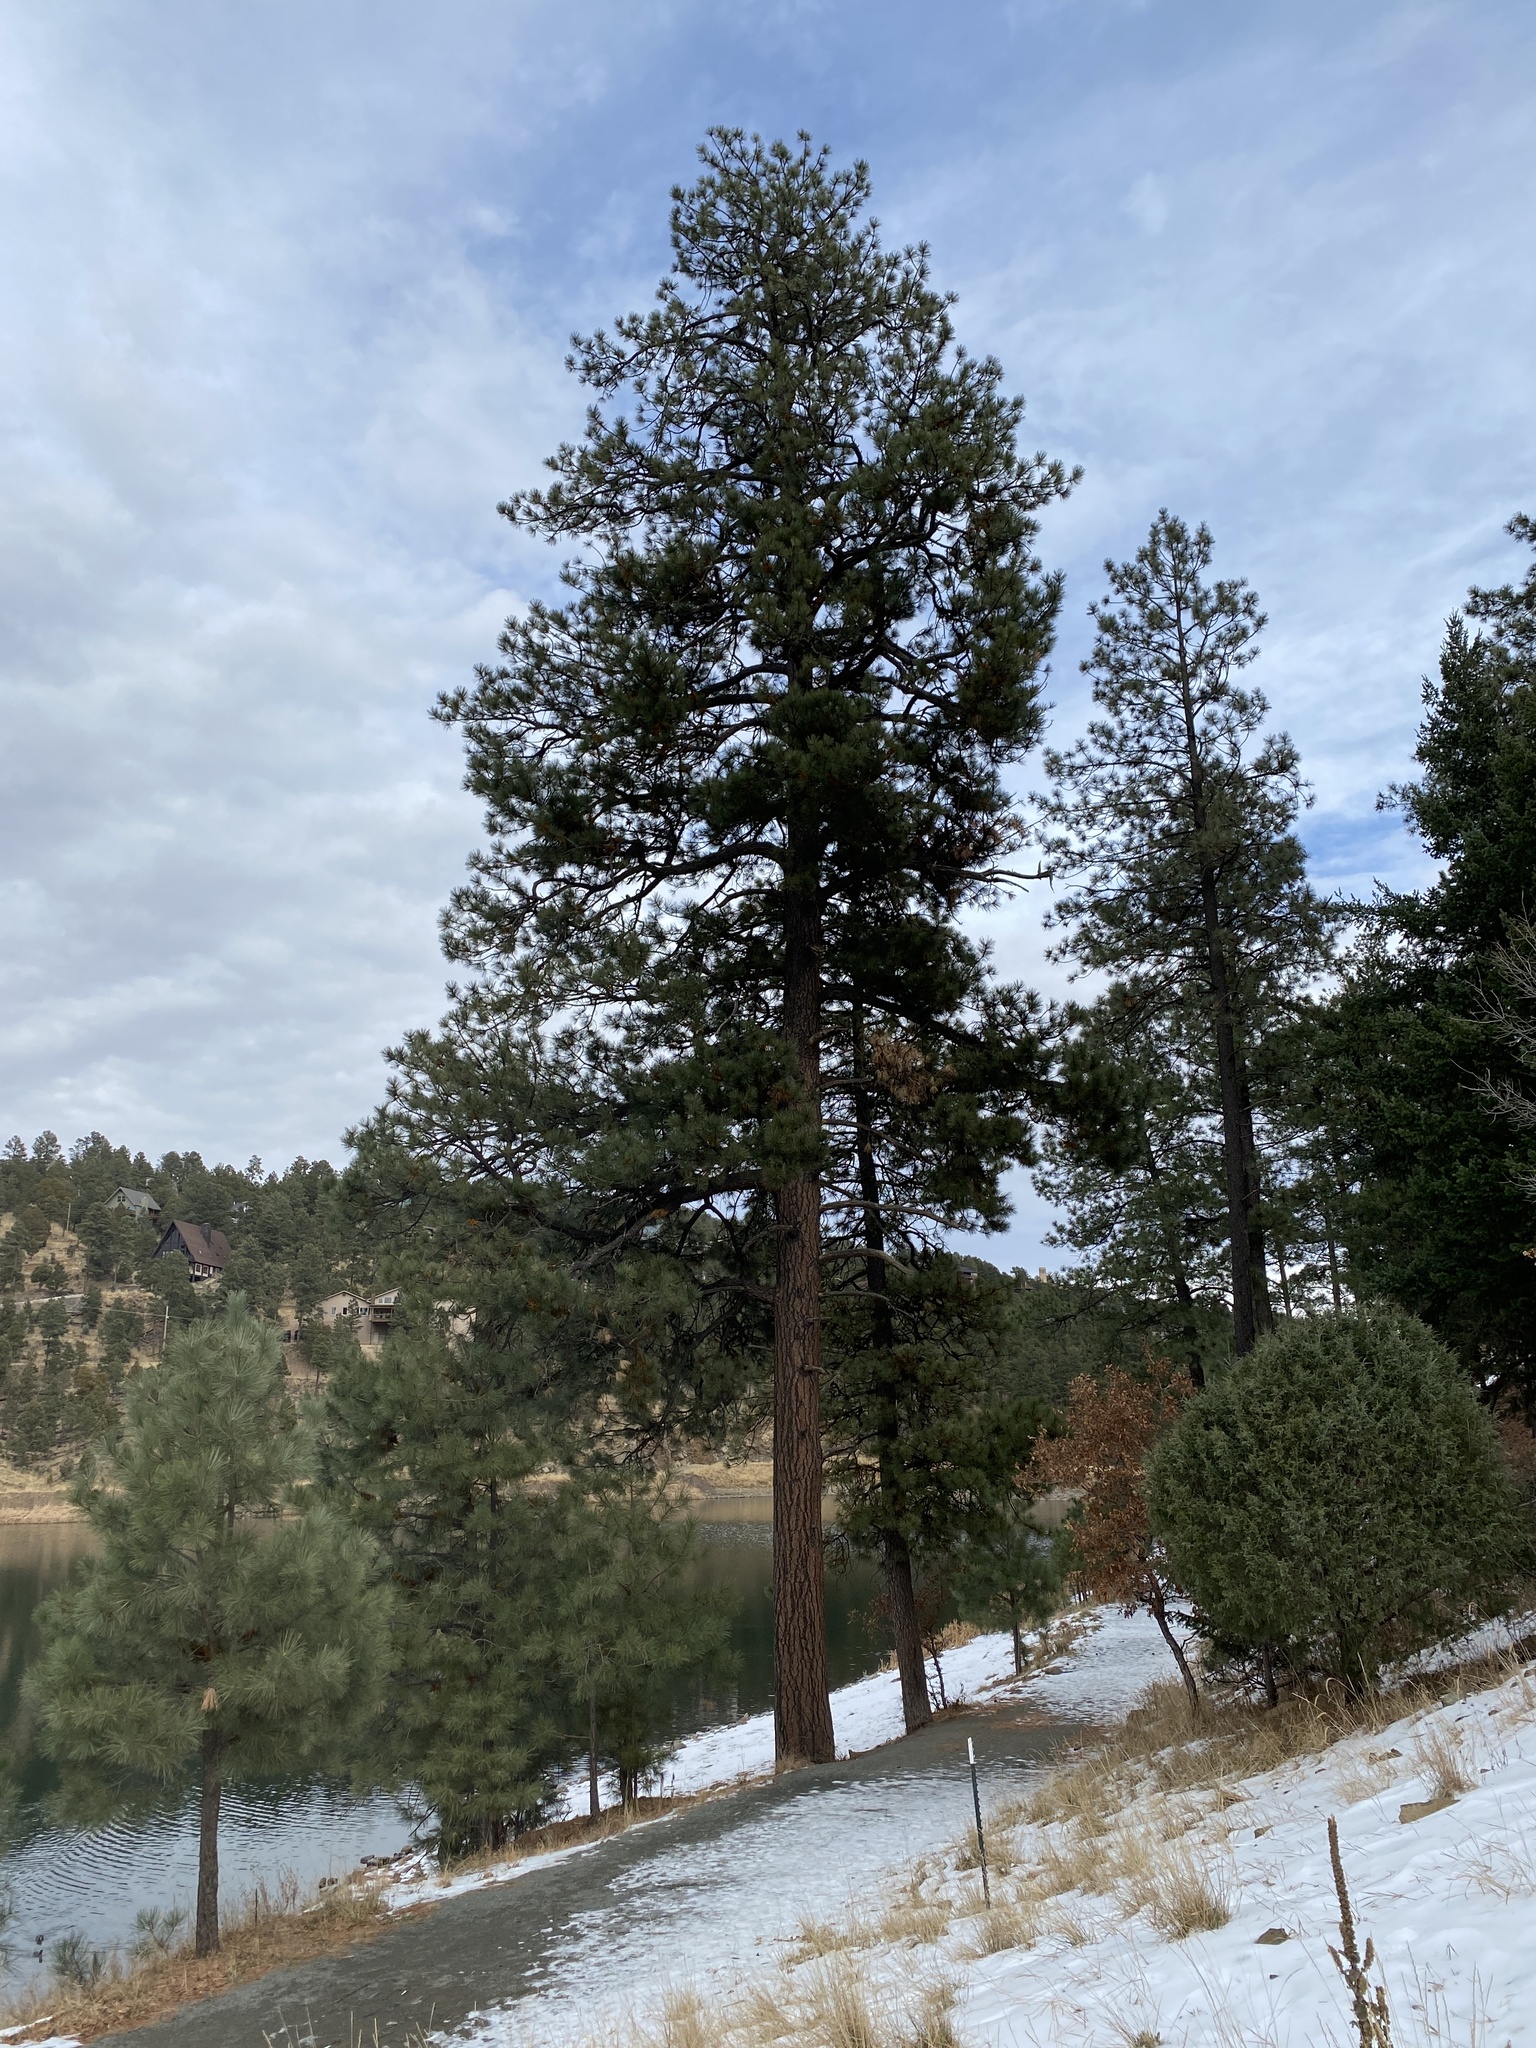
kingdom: Plantae
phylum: Tracheophyta
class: Pinopsida
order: Pinales
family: Pinaceae
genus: Pinus
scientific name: Pinus ponderosa
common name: Western yellow-pine
